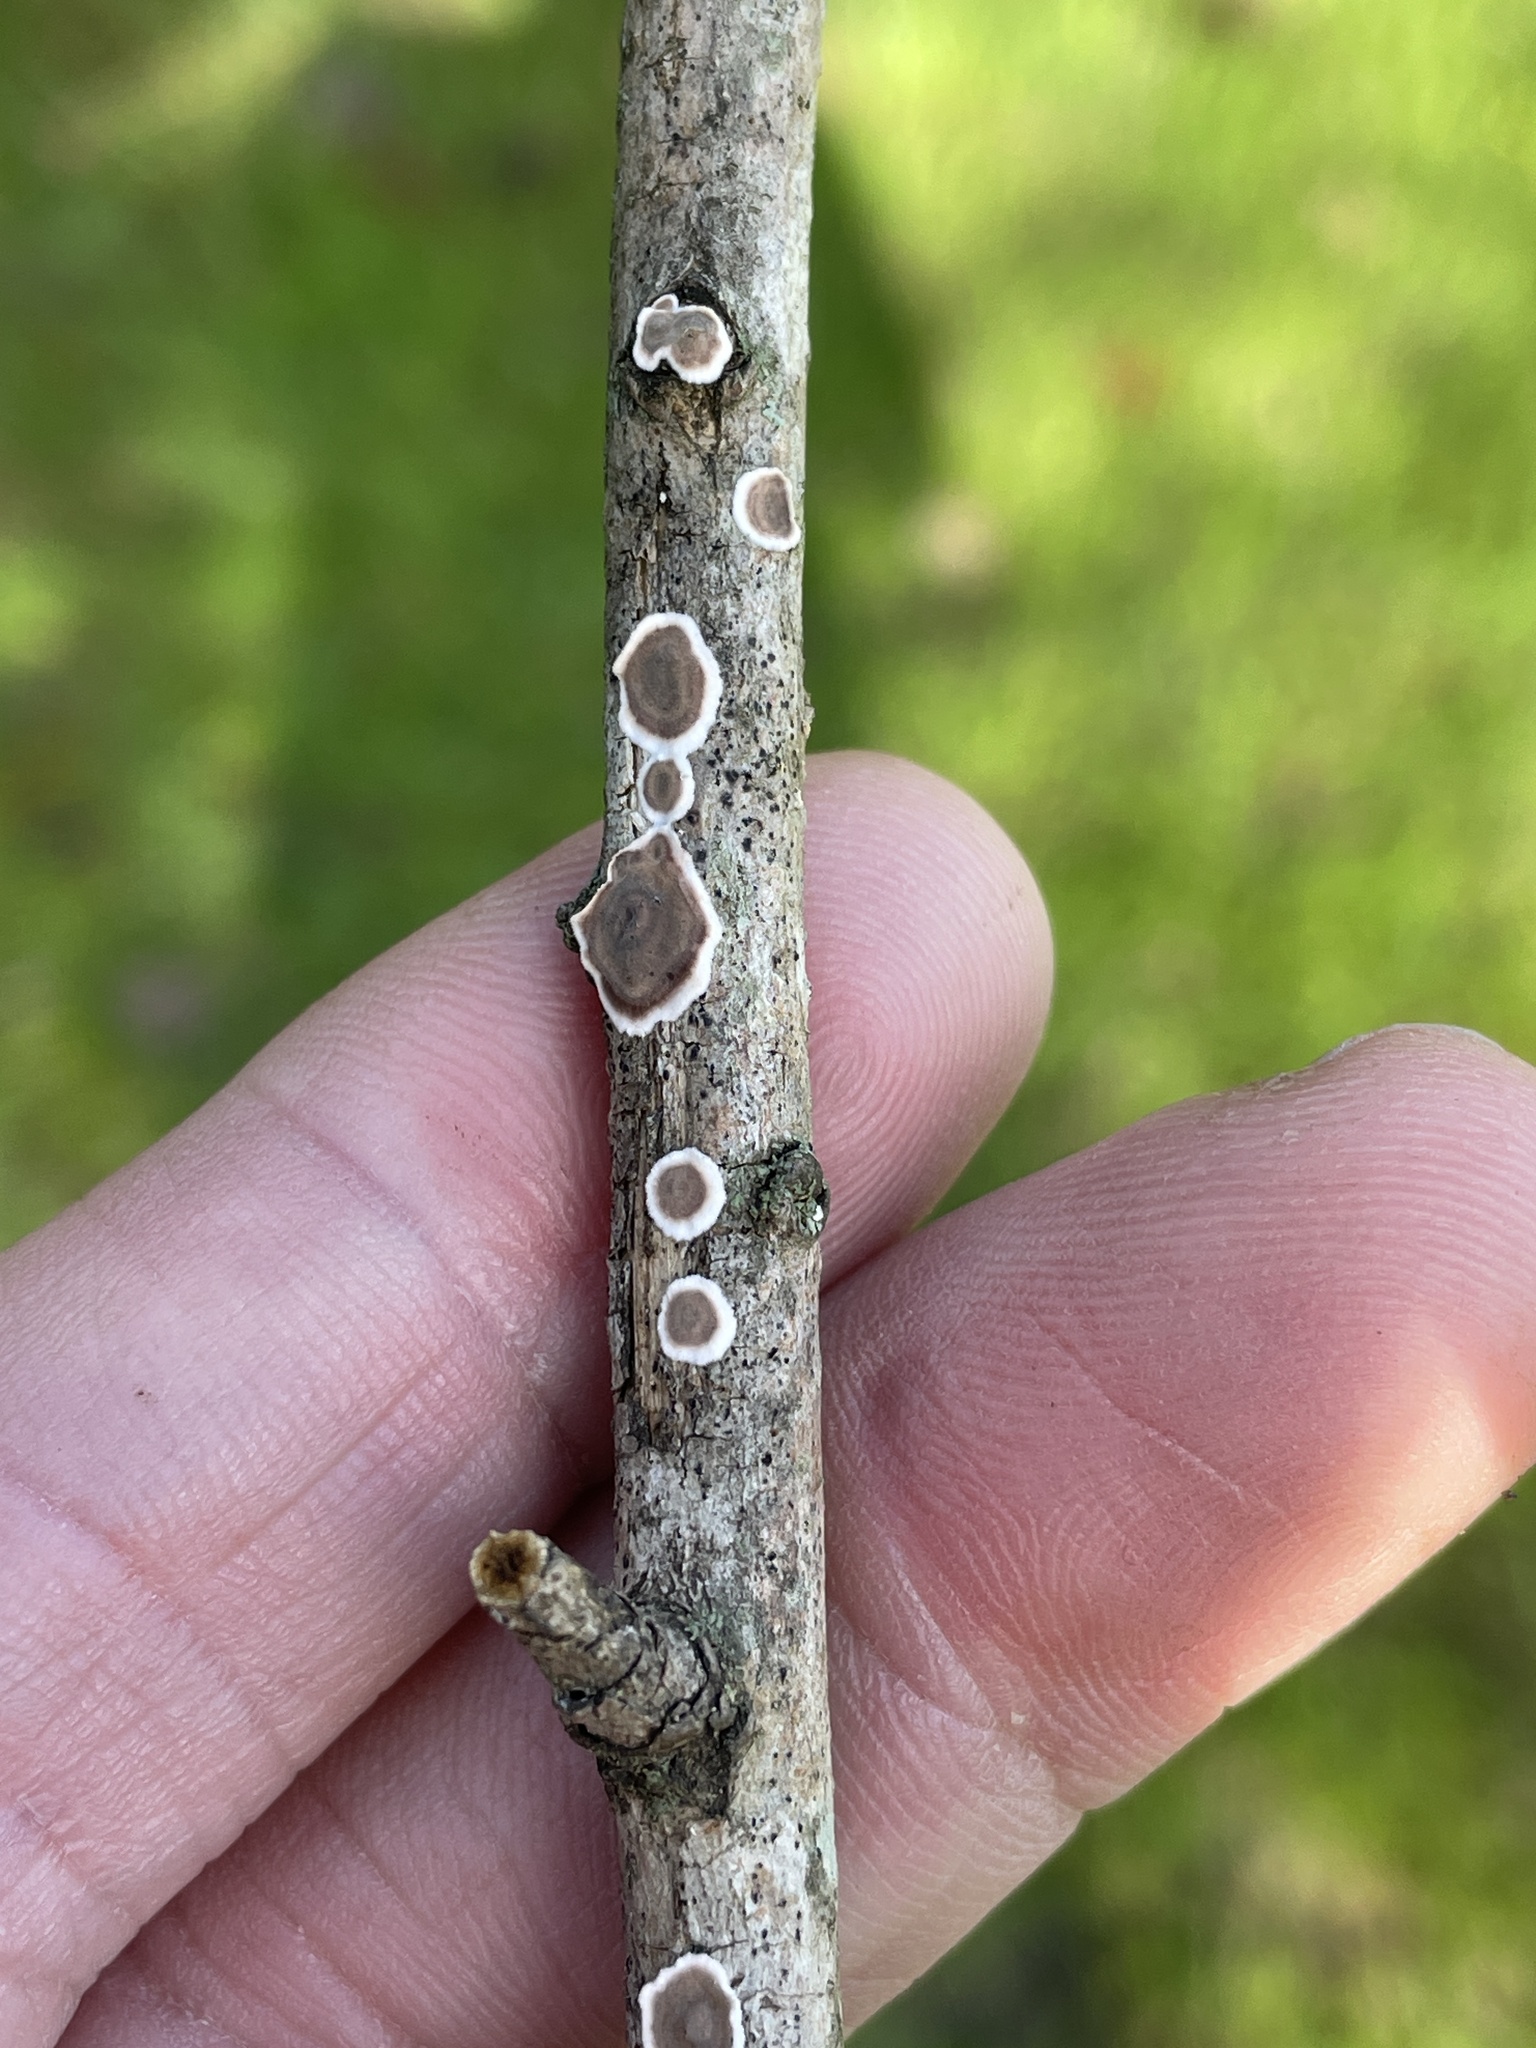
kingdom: Fungi
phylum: Basidiomycota
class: Agaricomycetes
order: Russulales
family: Peniophoraceae
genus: Peniophora
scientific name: Peniophora albobadia
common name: Giraffe spots
